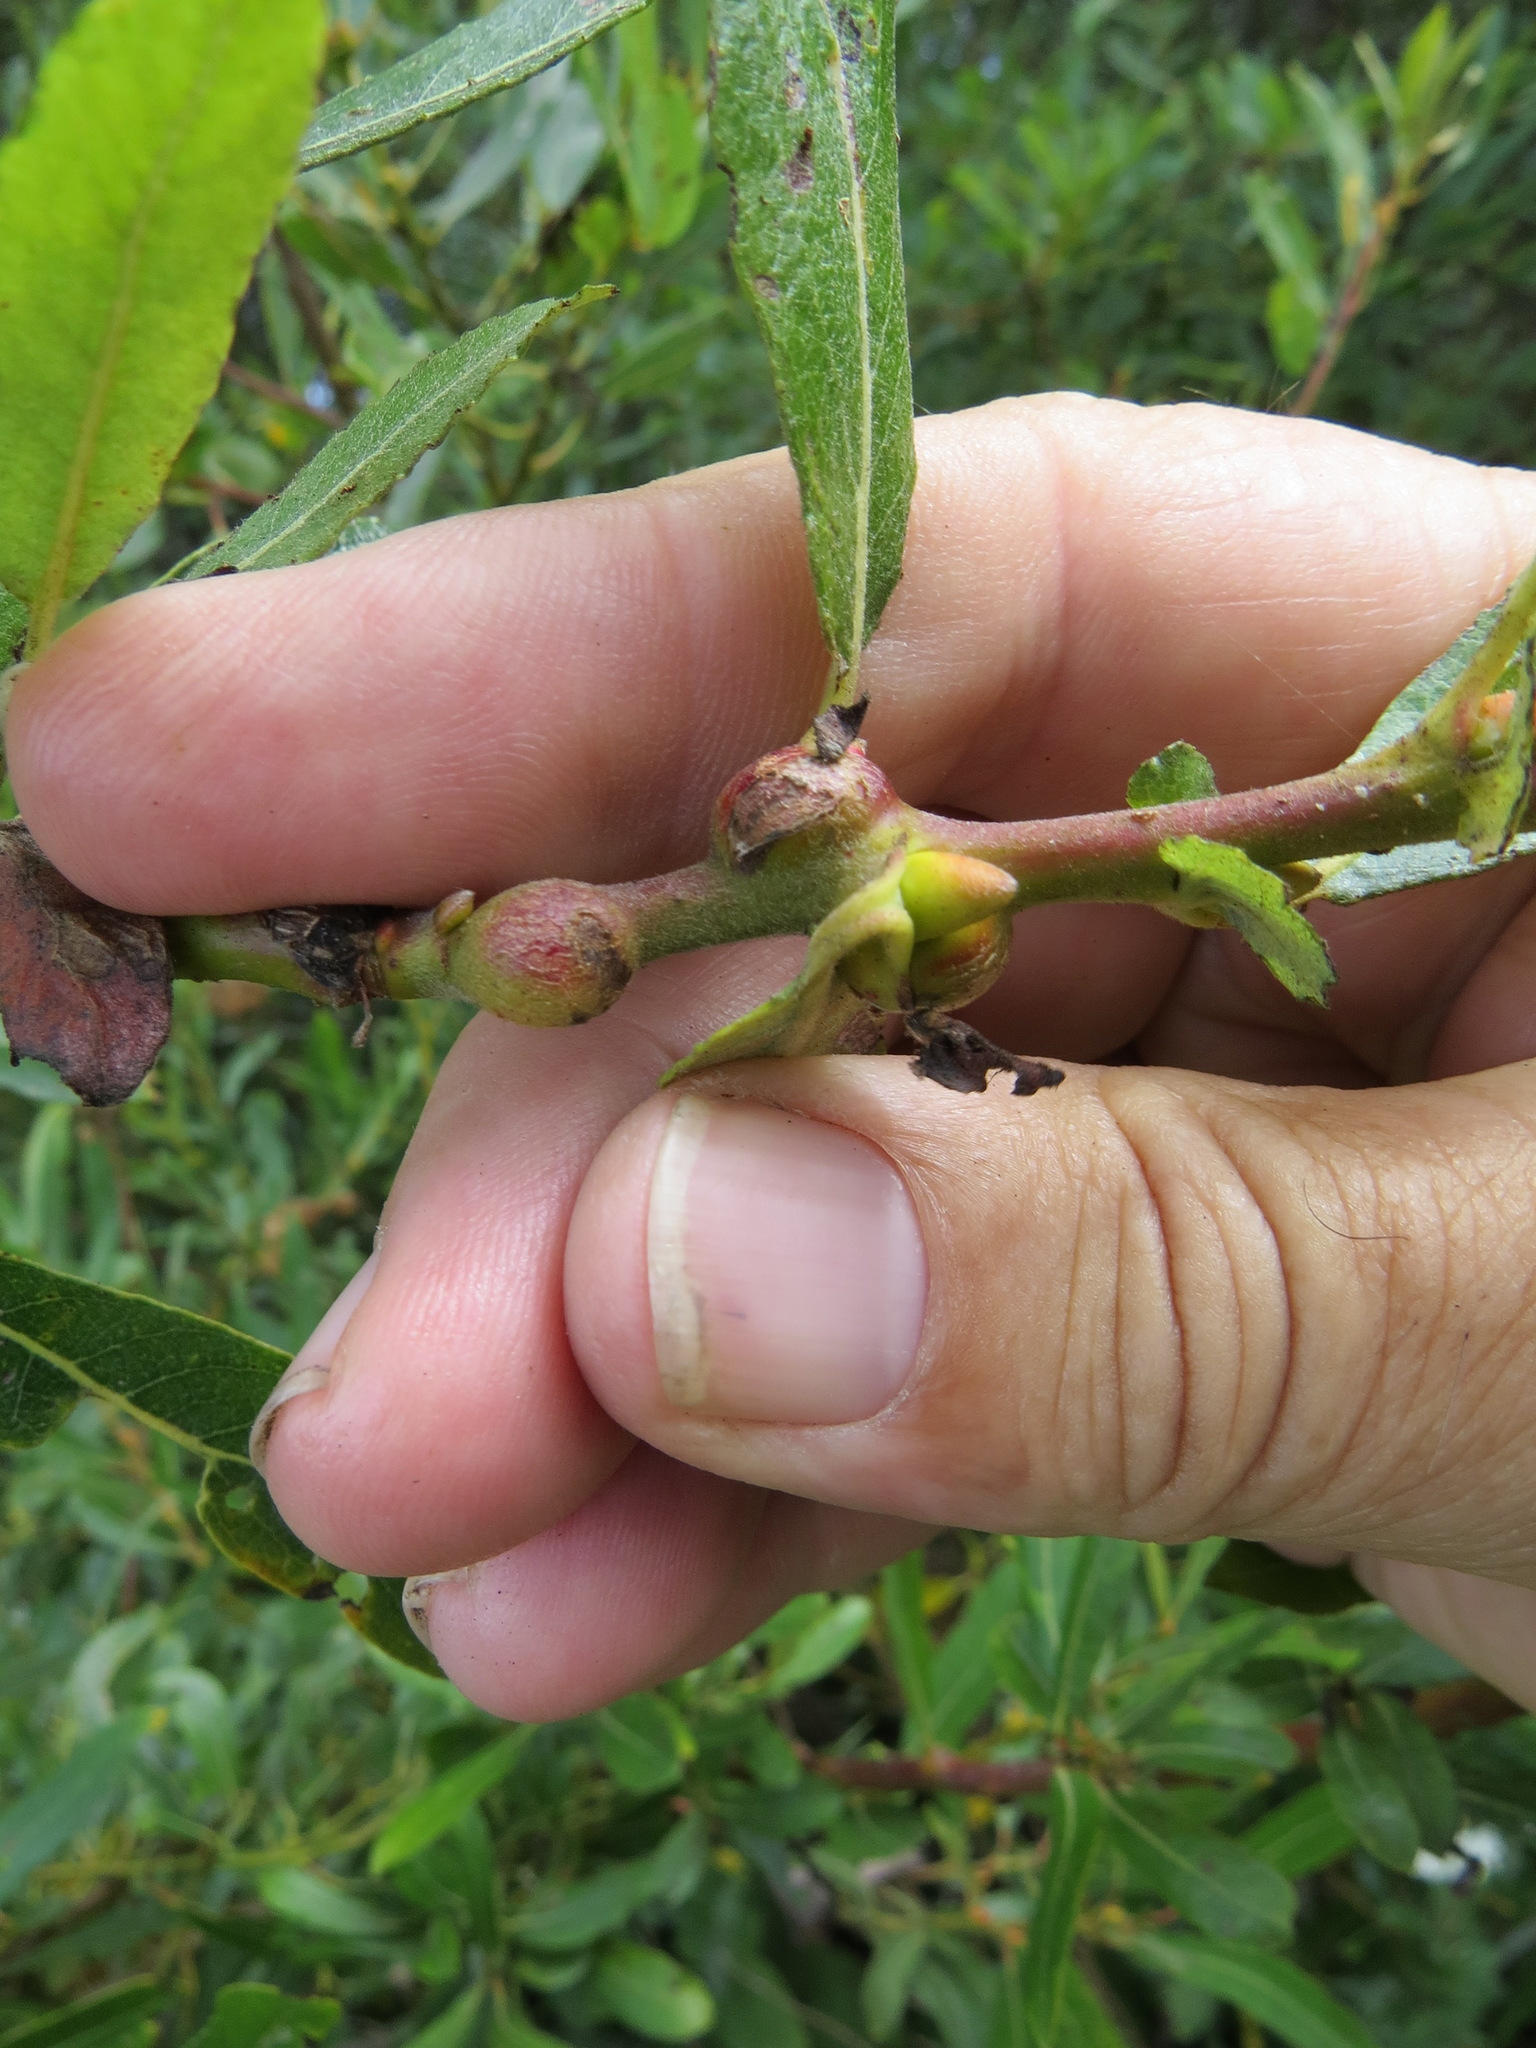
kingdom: Animalia
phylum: Arthropoda
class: Insecta
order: Hymenoptera
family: Tenthredinidae
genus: Euura
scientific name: Euura
